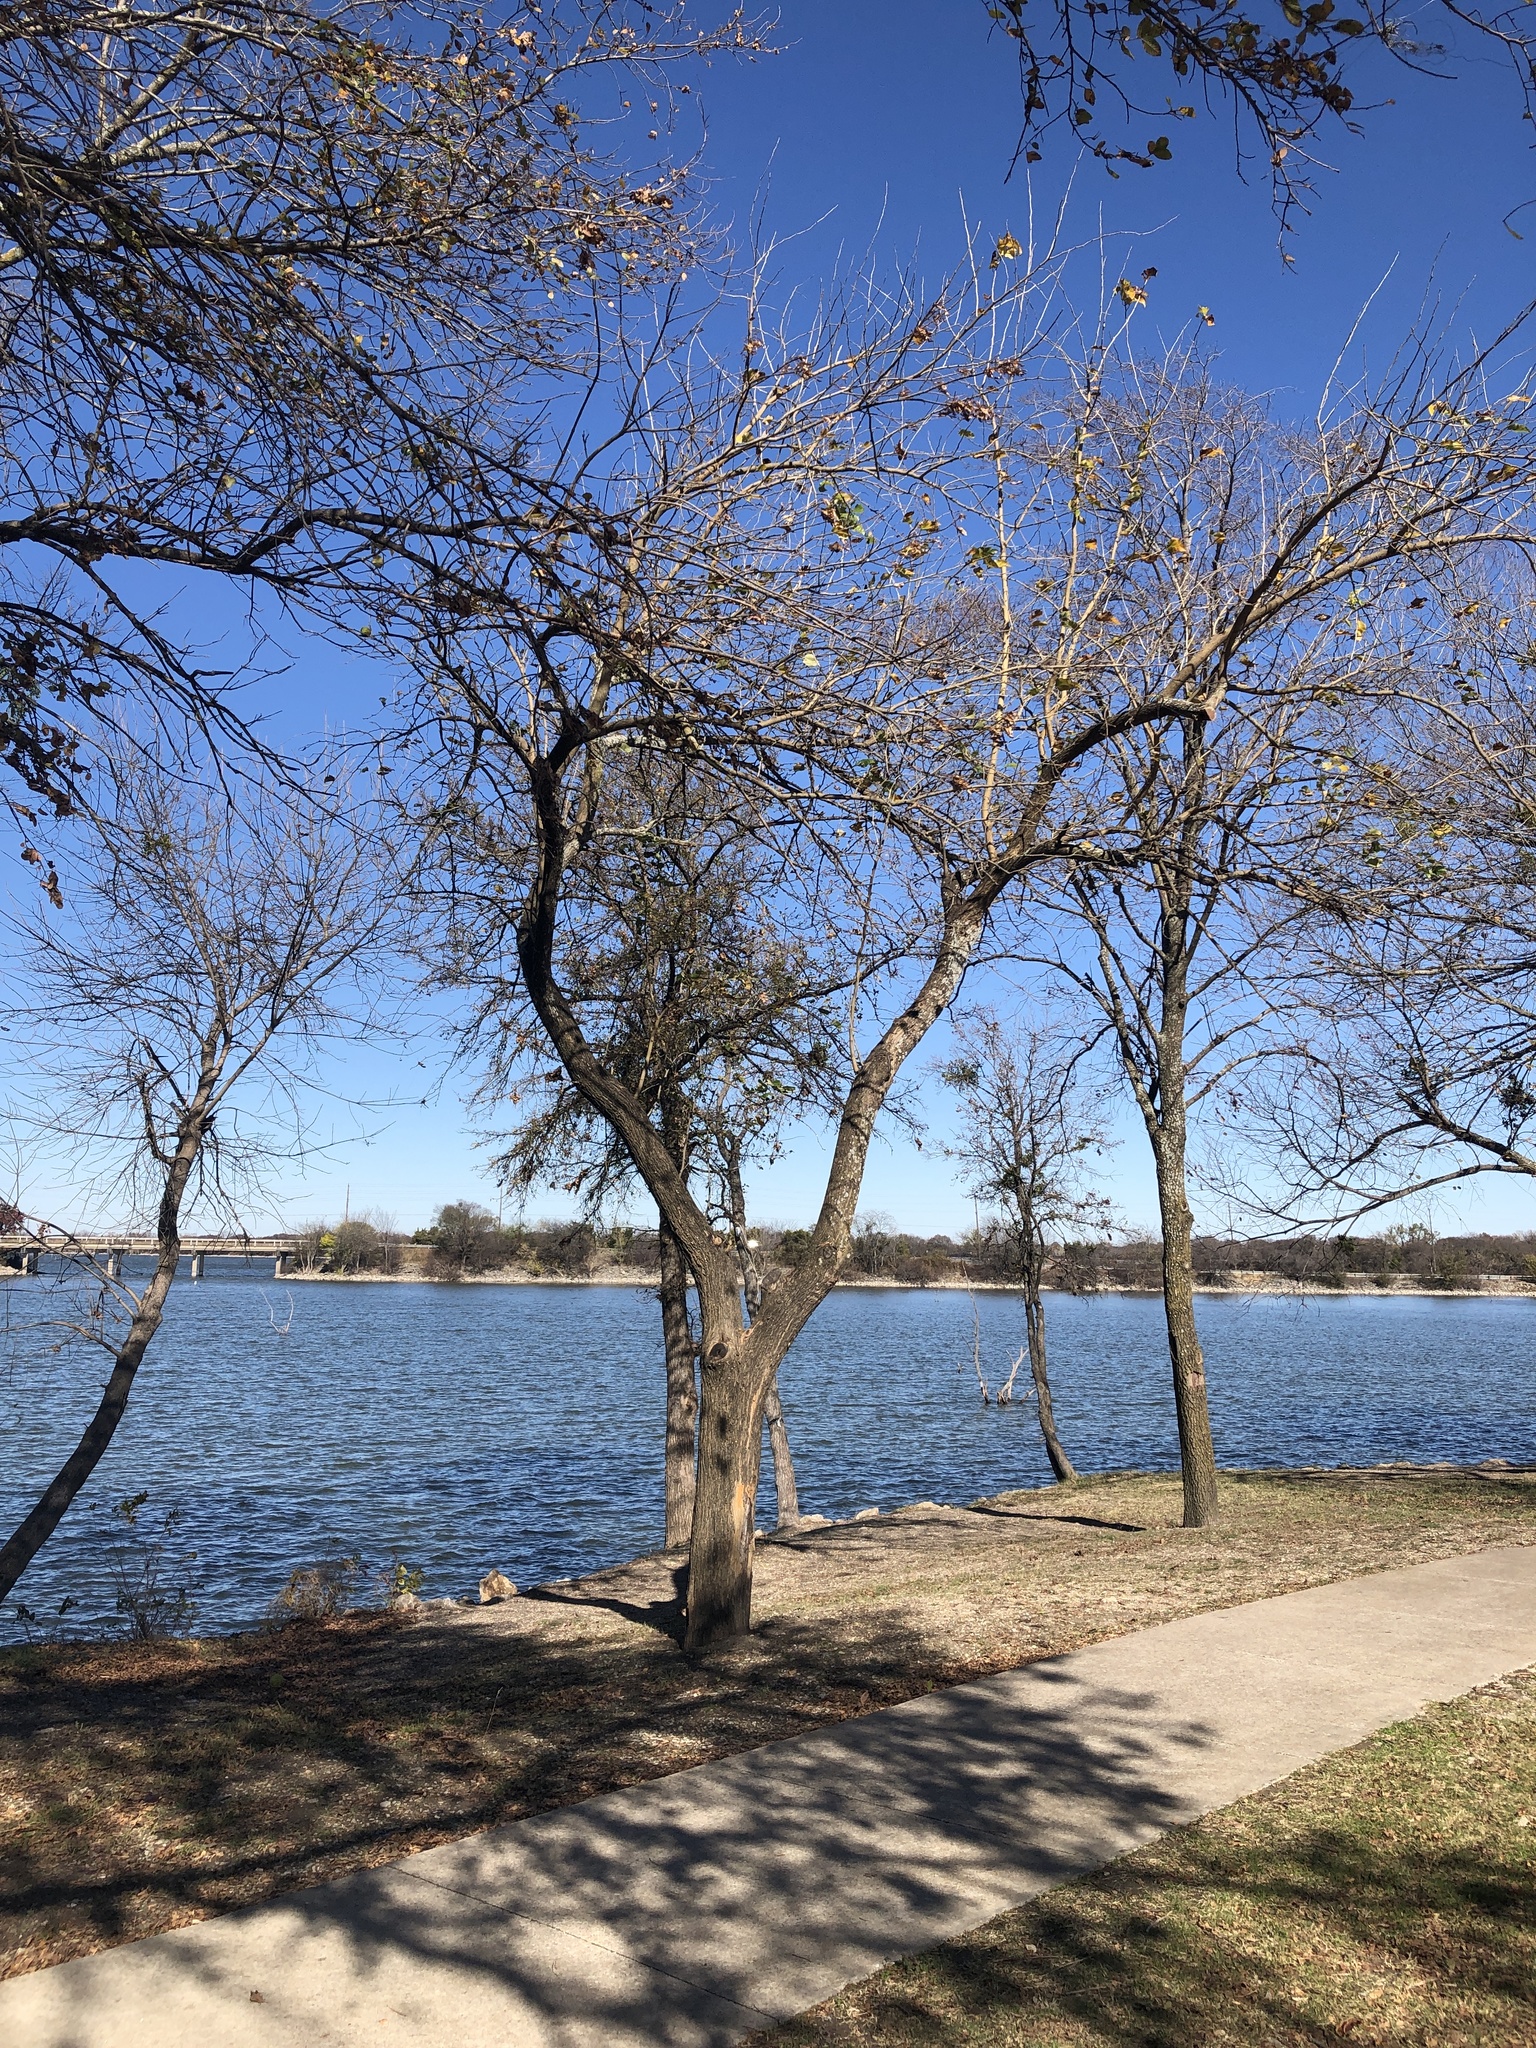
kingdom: Plantae
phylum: Tracheophyta
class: Magnoliopsida
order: Rosales
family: Moraceae
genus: Maclura
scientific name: Maclura pomifera
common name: Osage-orange
